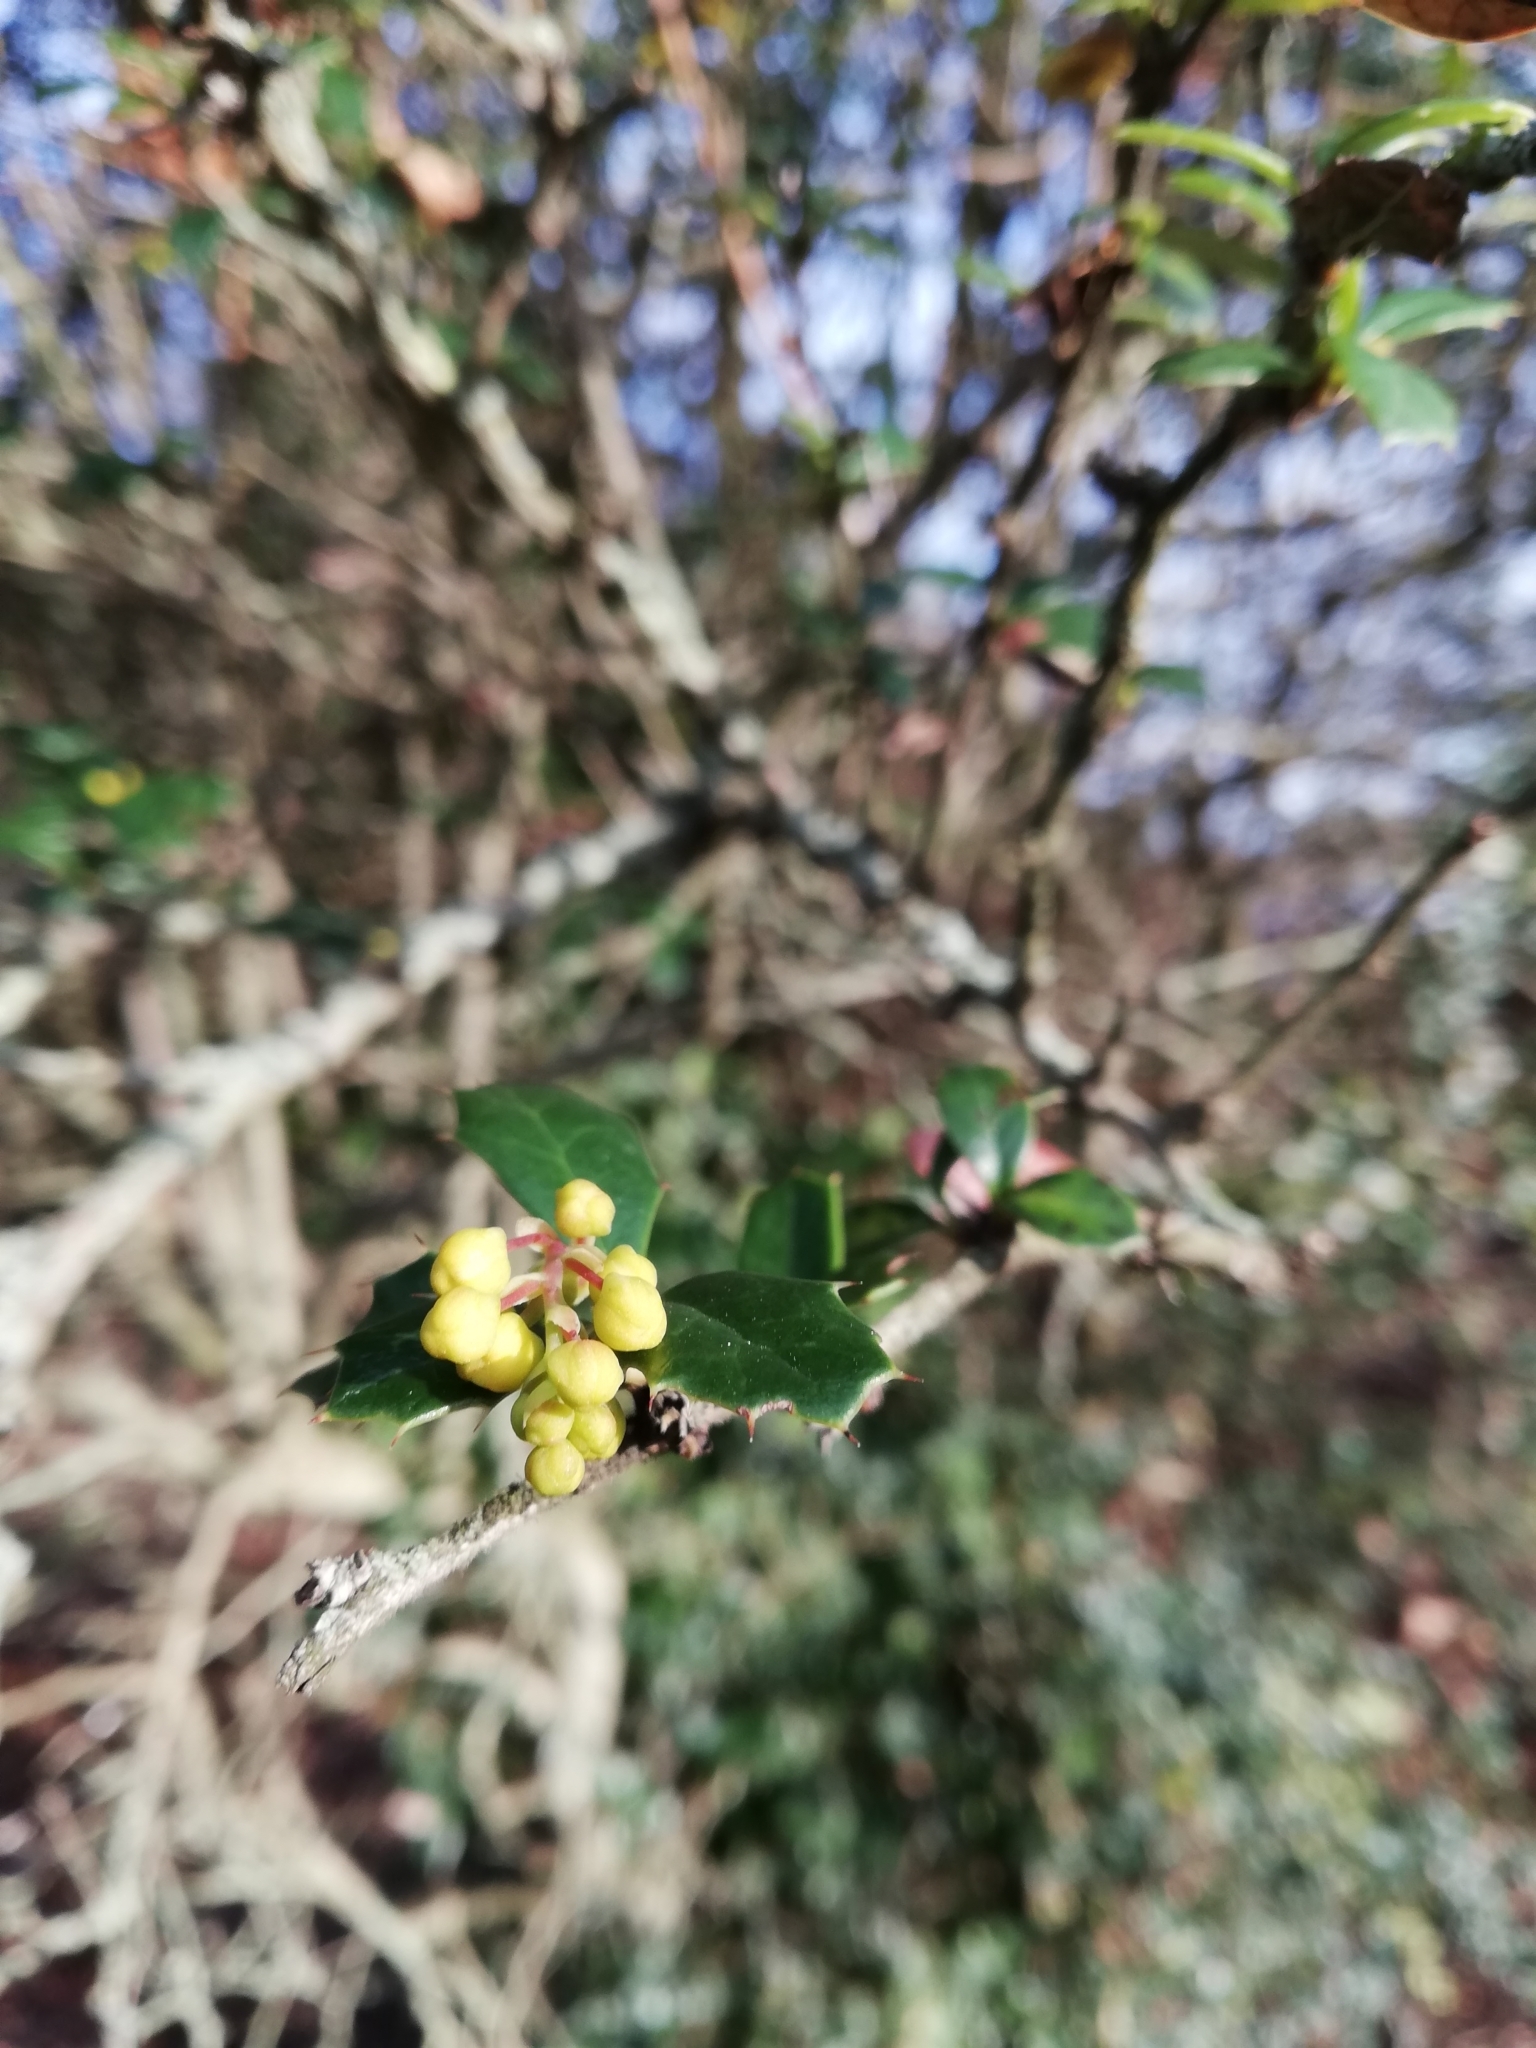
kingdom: Plantae
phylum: Tracheophyta
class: Magnoliopsida
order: Ranunculales
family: Berberidaceae
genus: Berberis
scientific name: Berberis darwinii
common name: Darwin's barberry
